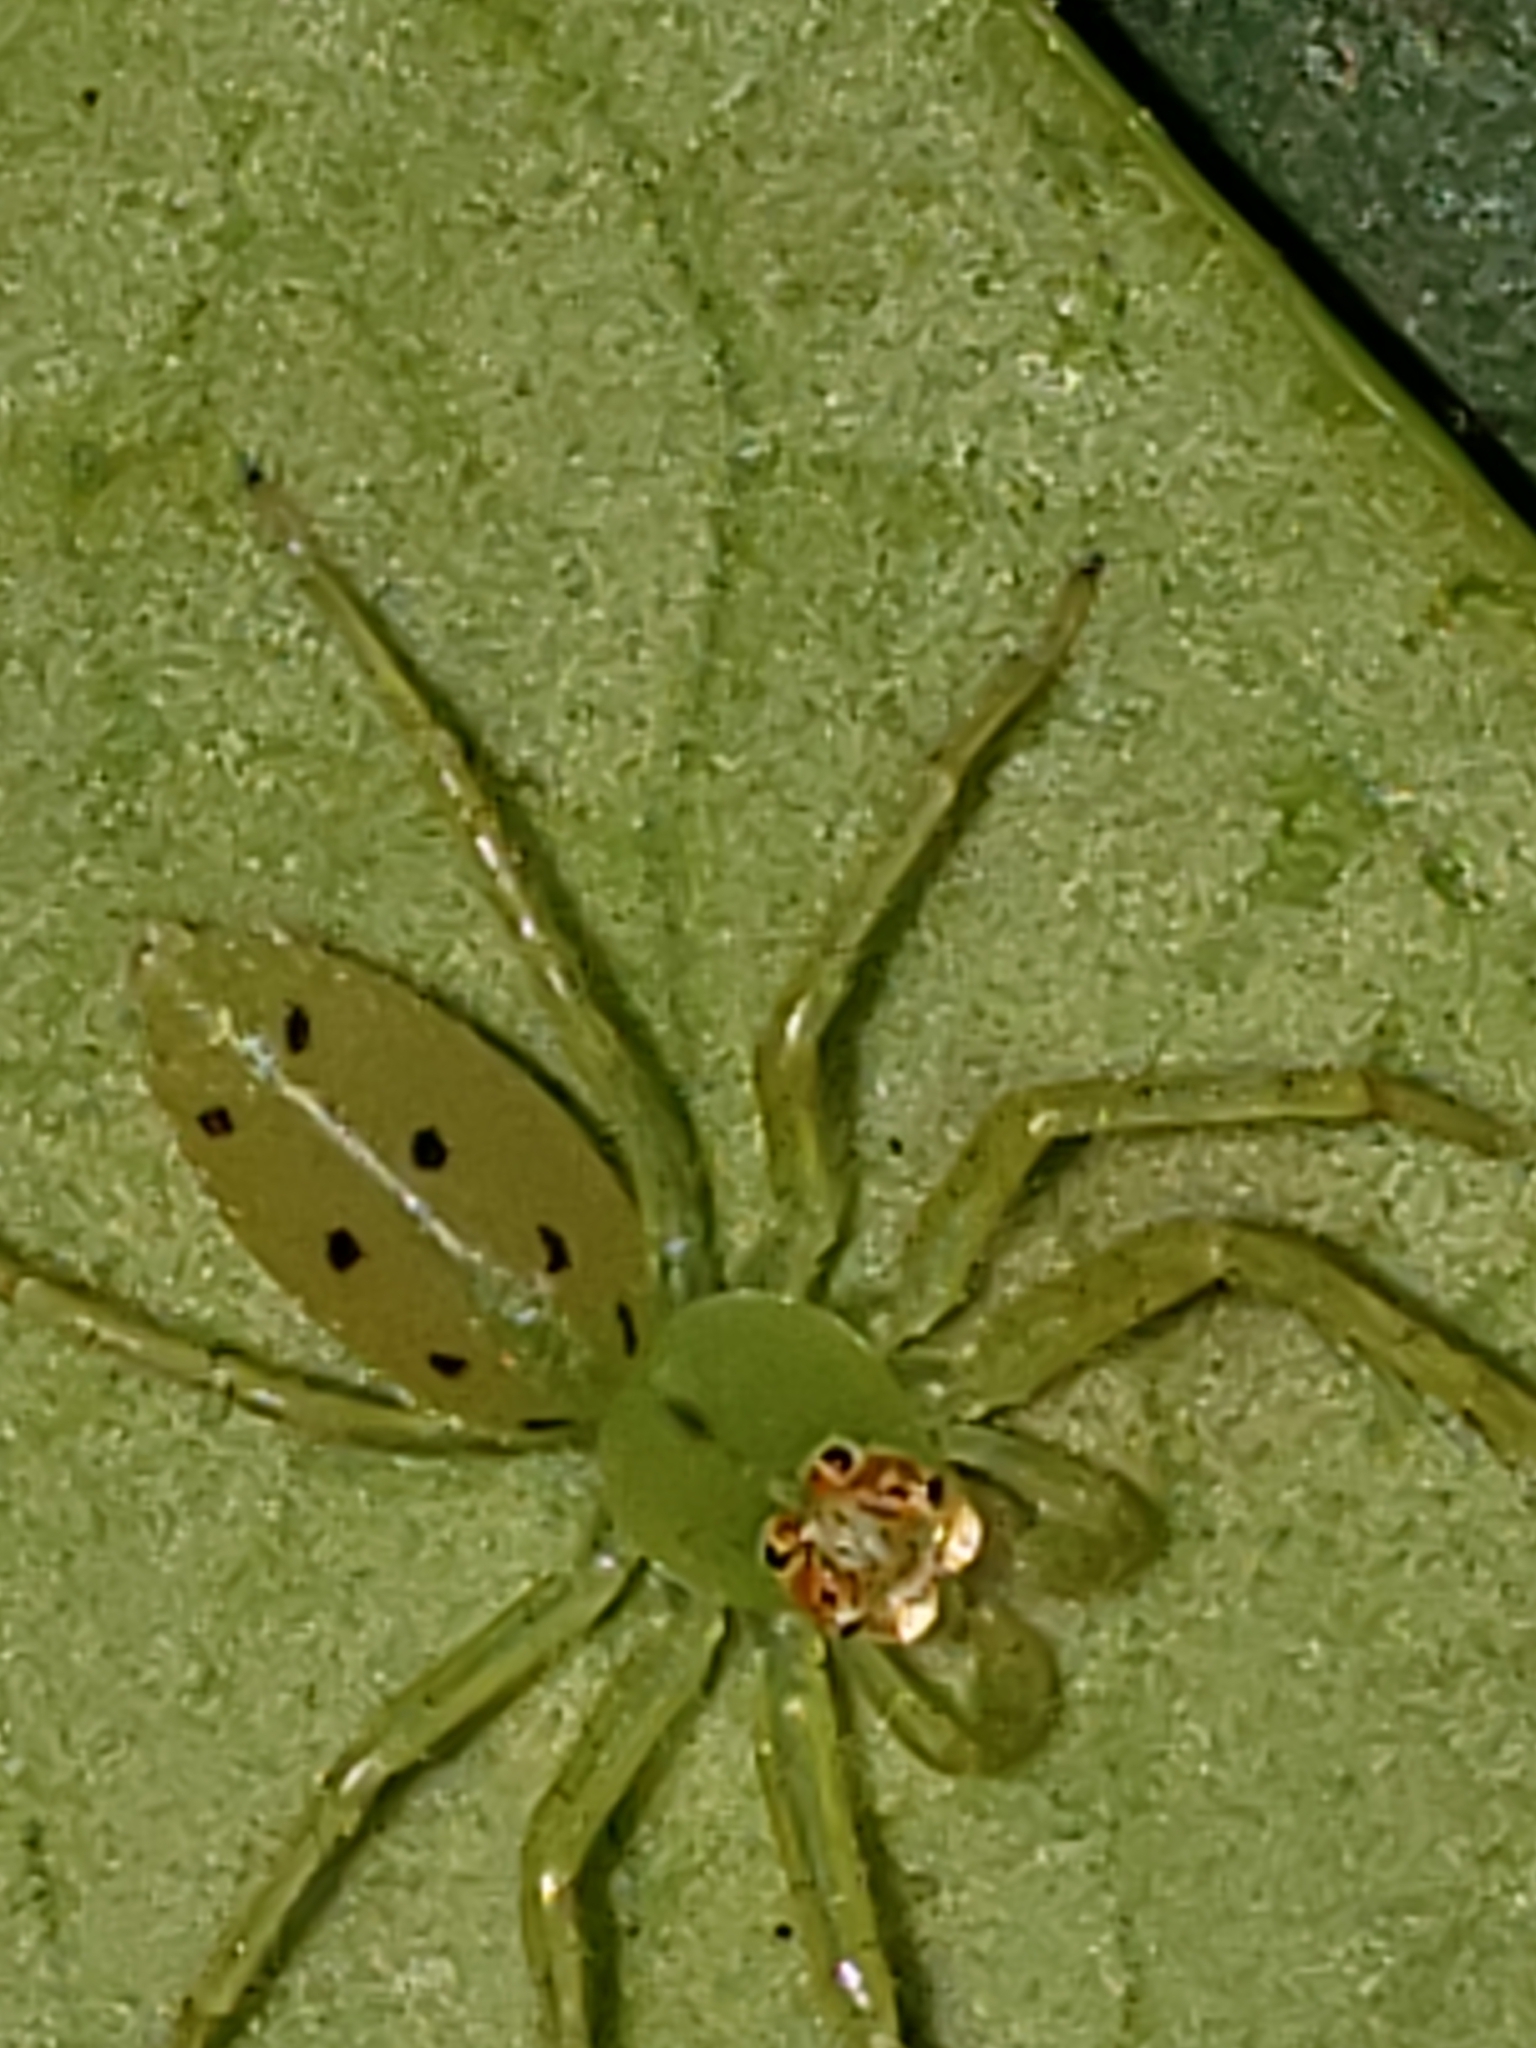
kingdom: Animalia
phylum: Arthropoda
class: Arachnida
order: Araneae
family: Salticidae
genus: Lyssomanes
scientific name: Lyssomanes viridis
